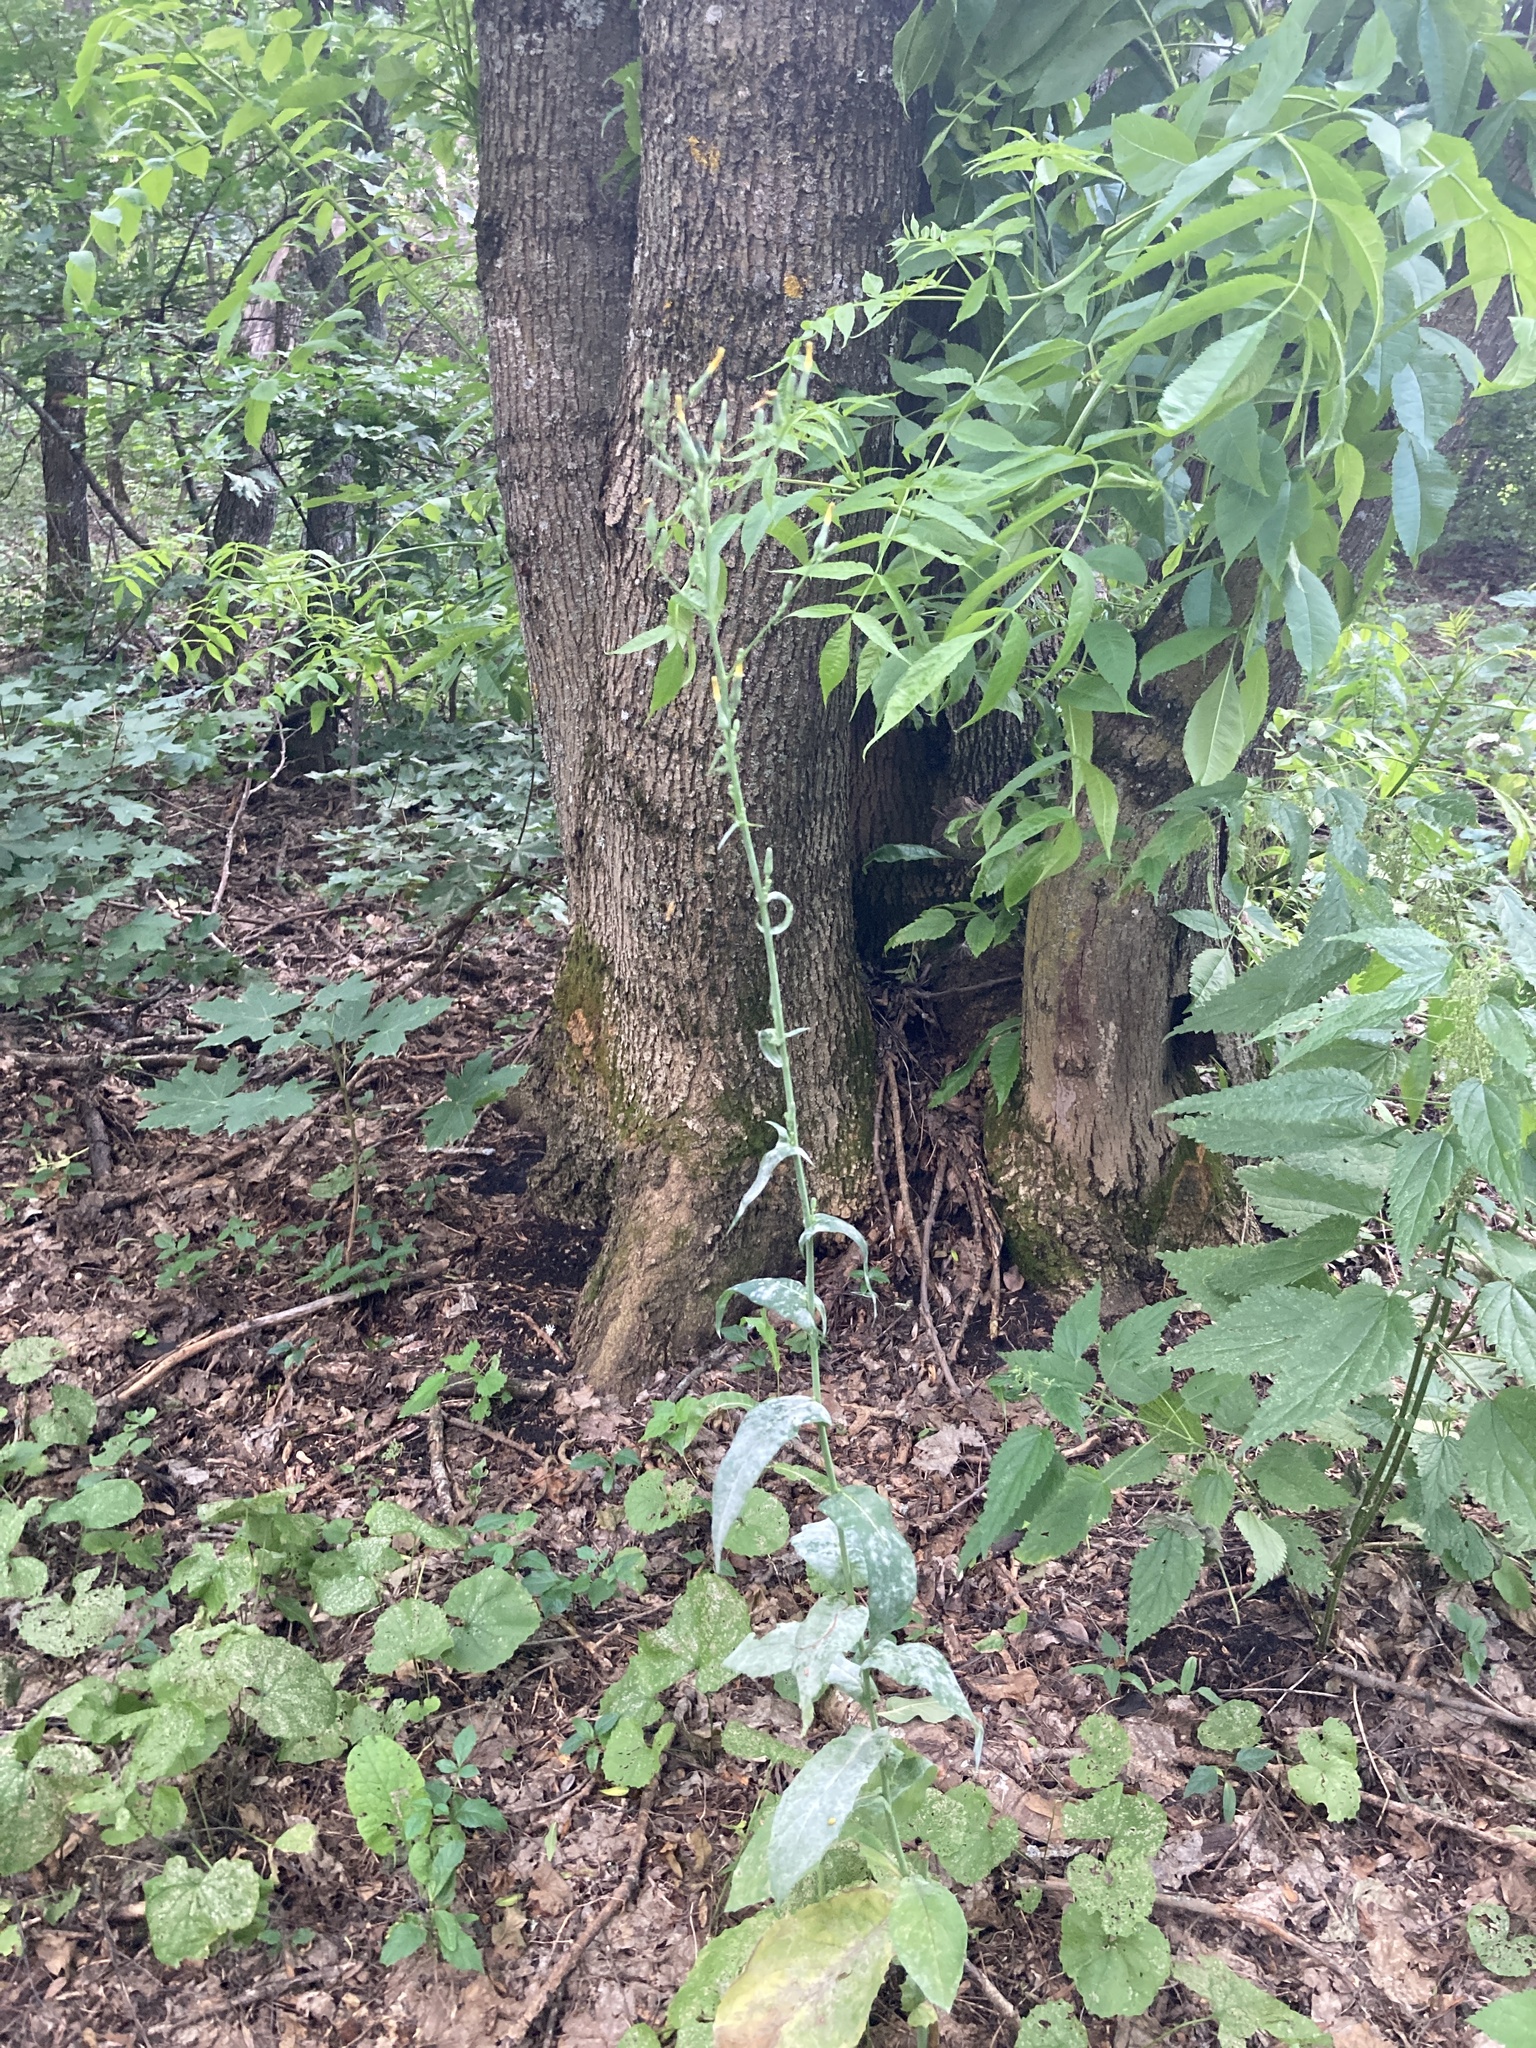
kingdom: Plantae
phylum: Tracheophyta
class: Magnoliopsida
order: Asterales
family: Asteraceae
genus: Lactuca
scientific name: Lactuca quercina
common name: Wild lettuce
